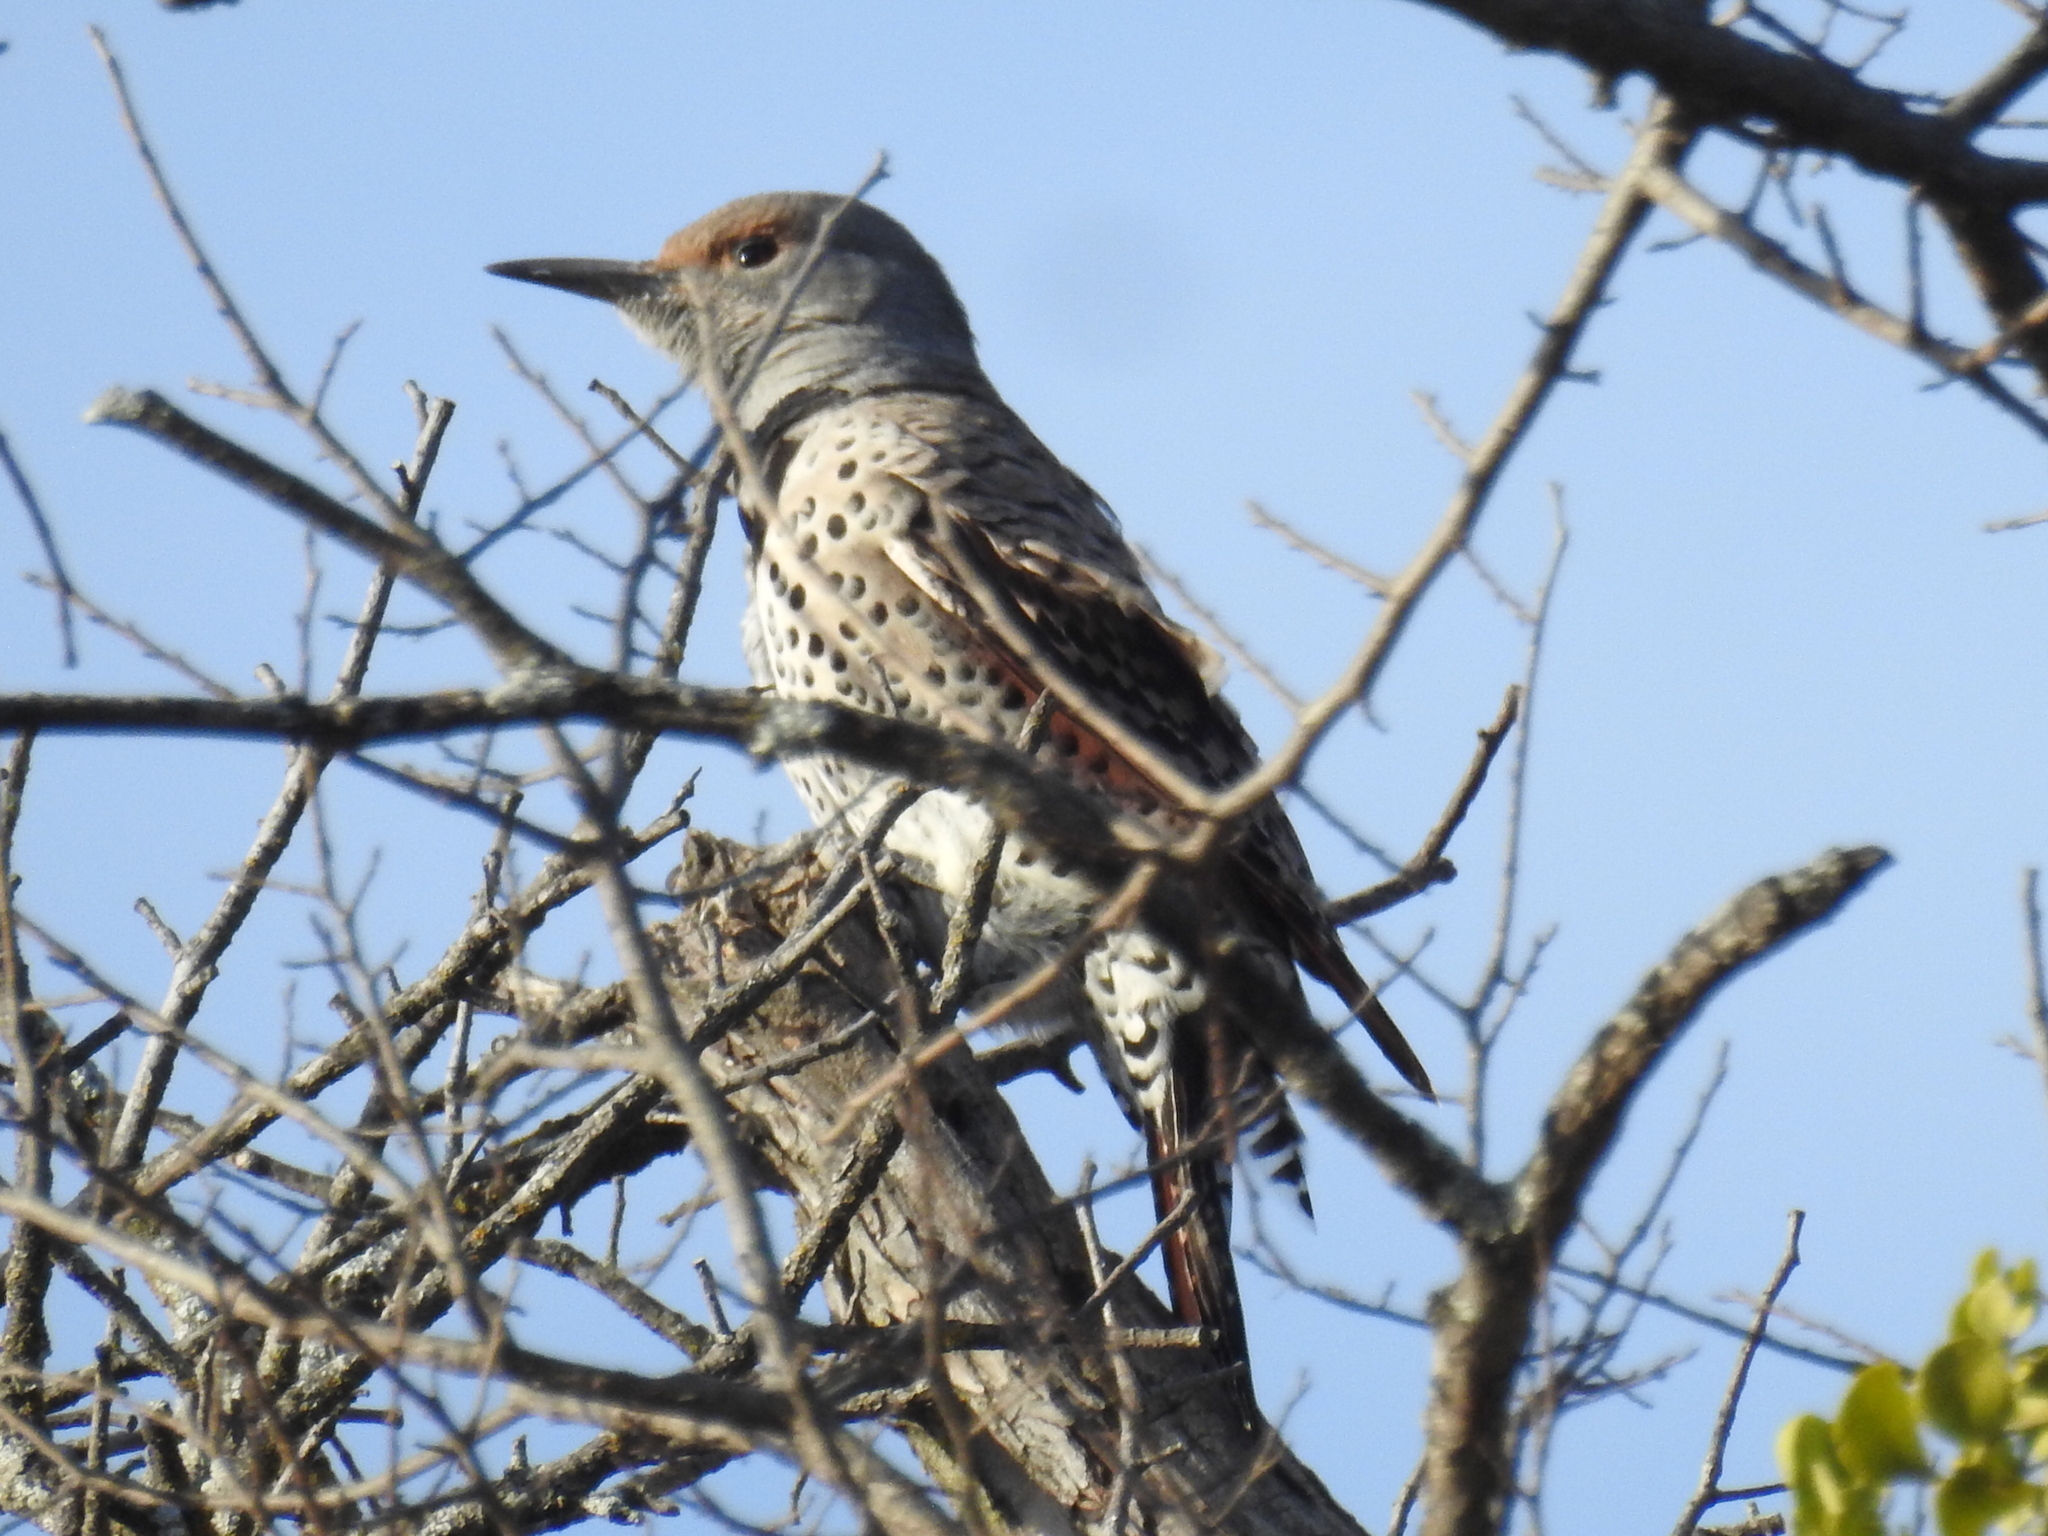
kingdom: Animalia
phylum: Chordata
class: Aves
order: Piciformes
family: Picidae
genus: Colaptes
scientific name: Colaptes auratus
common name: Northern flicker
